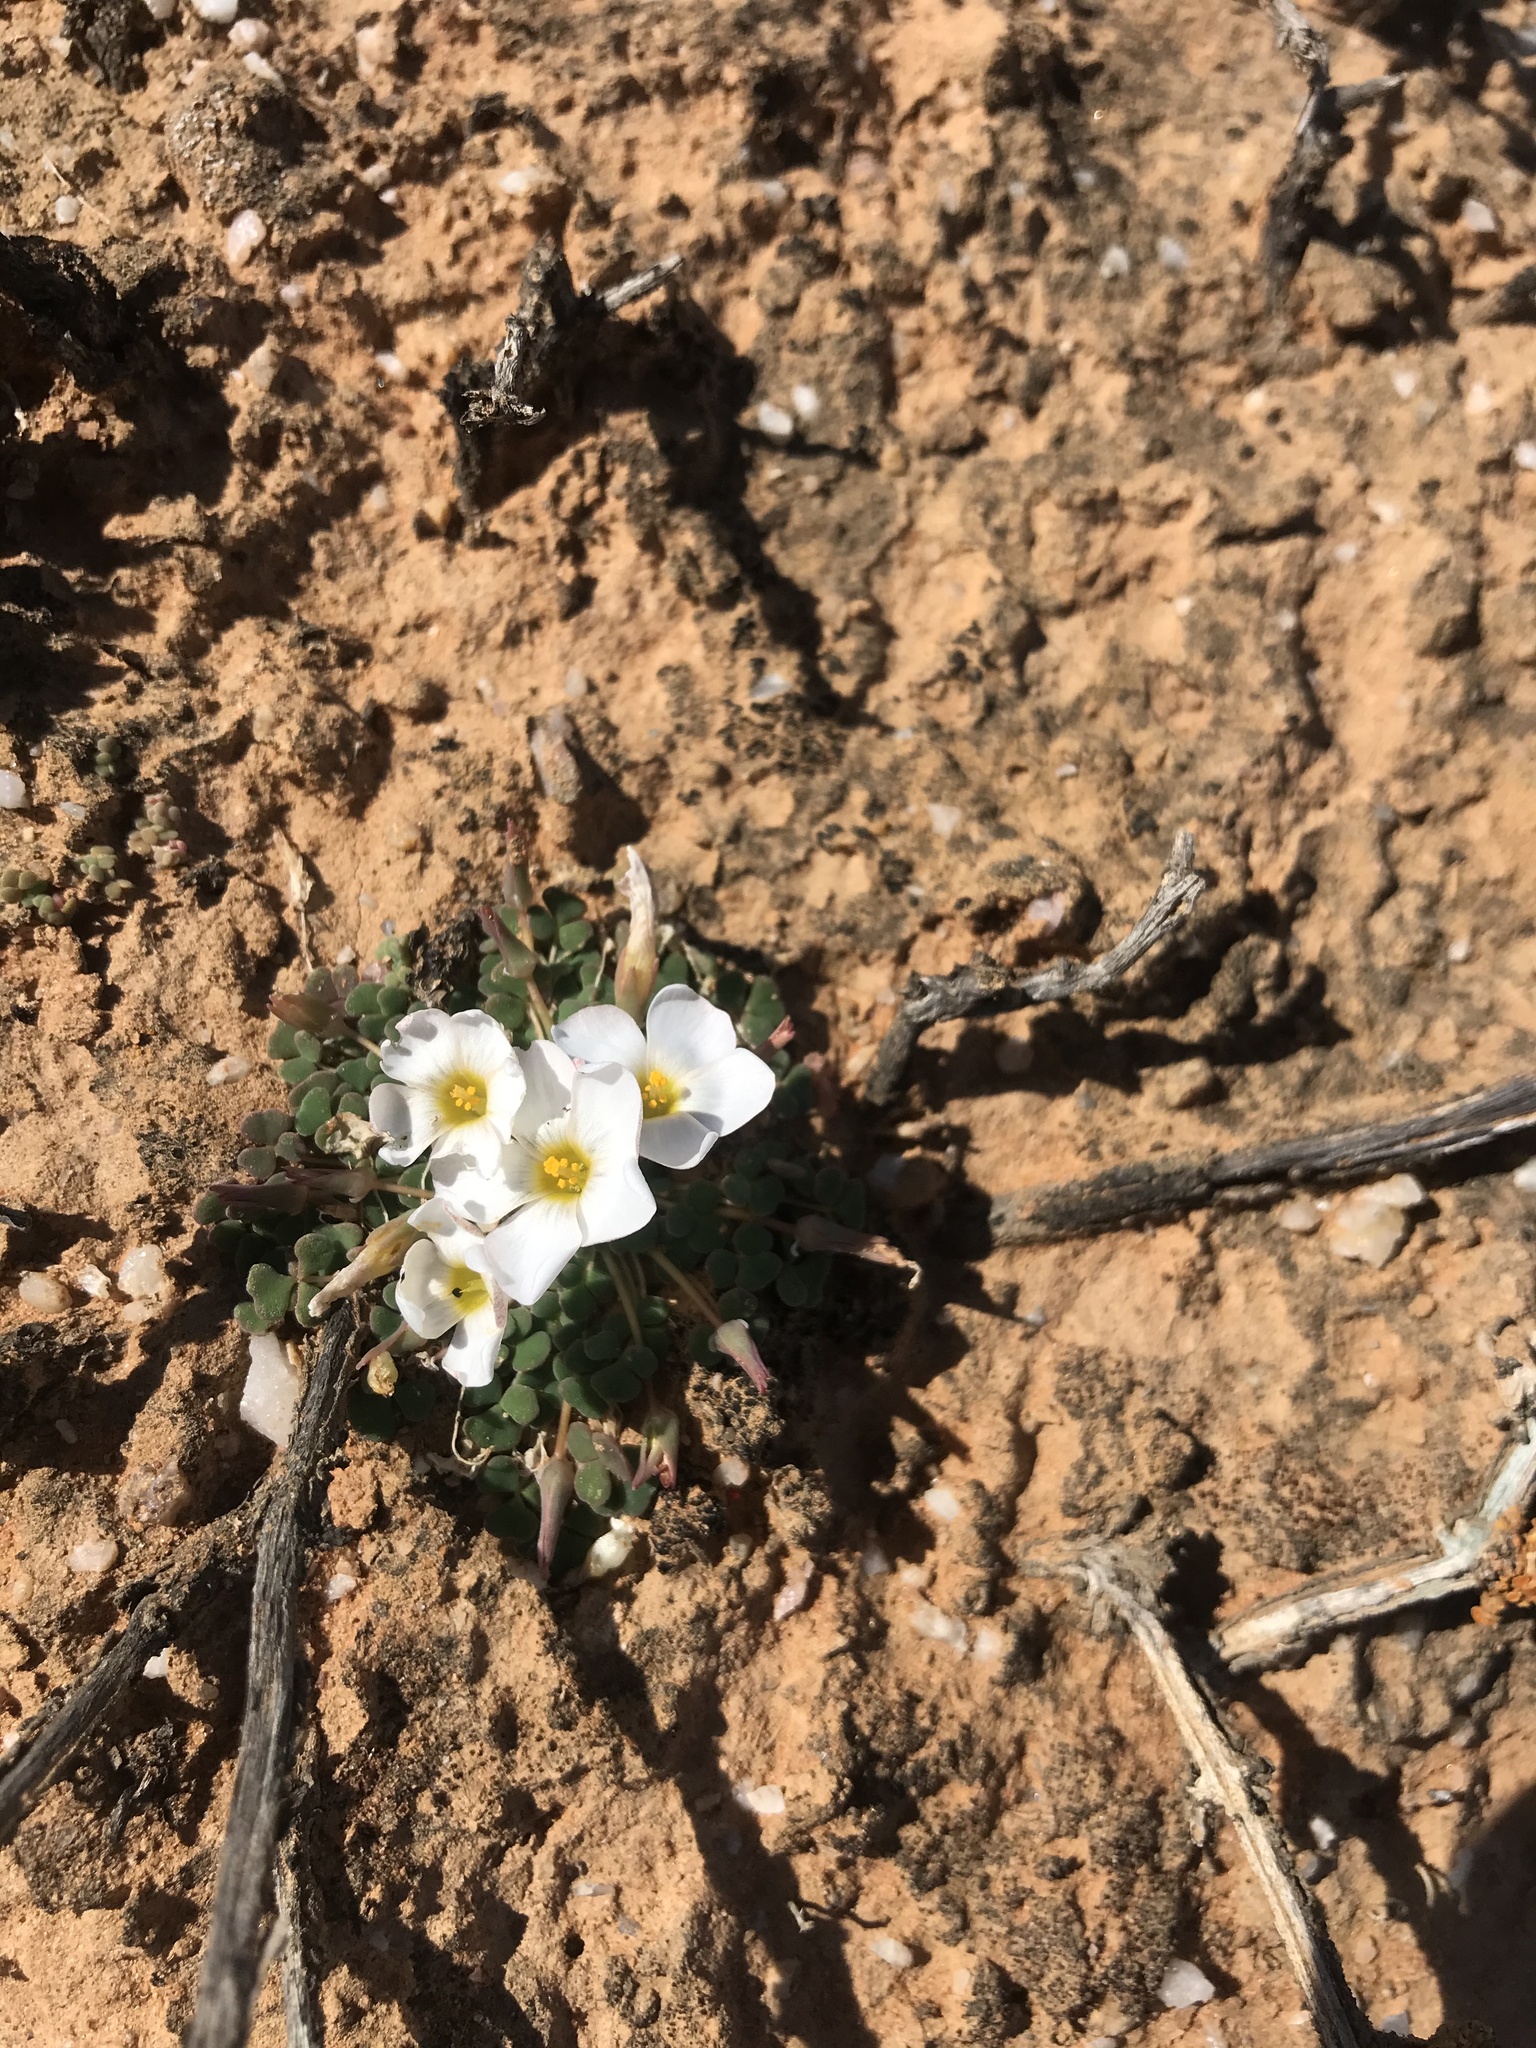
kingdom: Plantae
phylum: Tracheophyta
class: Magnoliopsida
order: Oxalidales
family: Oxalidaceae
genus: Oxalis
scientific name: Oxalis lichenoides
